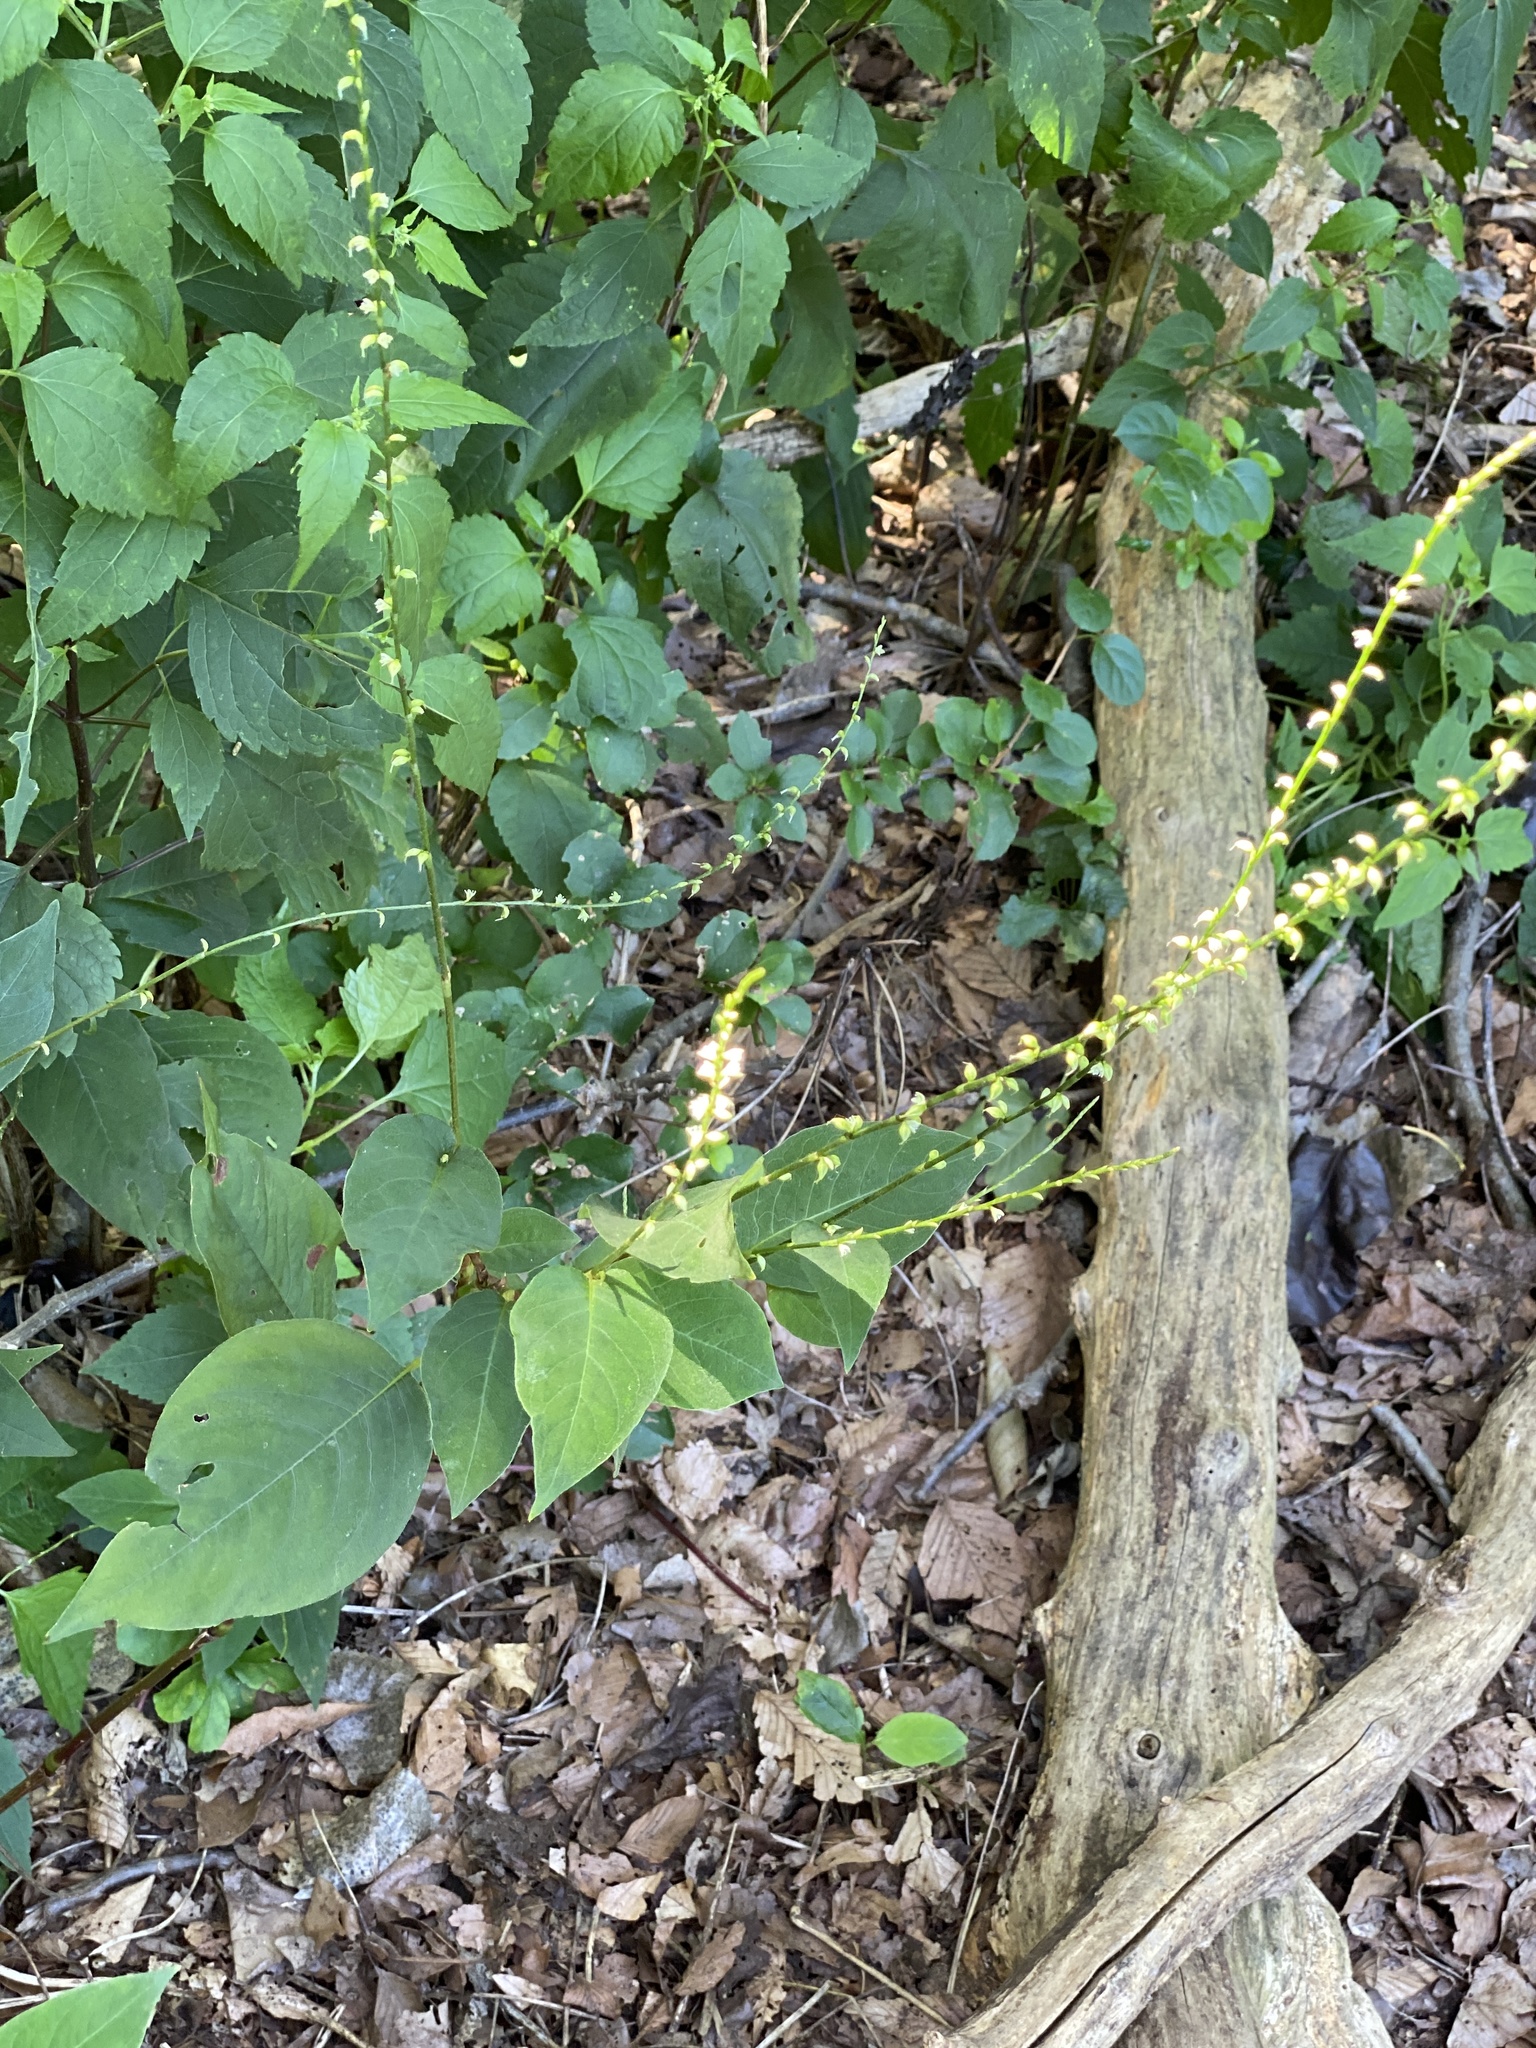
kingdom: Plantae
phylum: Tracheophyta
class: Magnoliopsida
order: Caryophyllales
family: Polygonaceae
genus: Persicaria
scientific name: Persicaria virginiana
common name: Jumpseed
